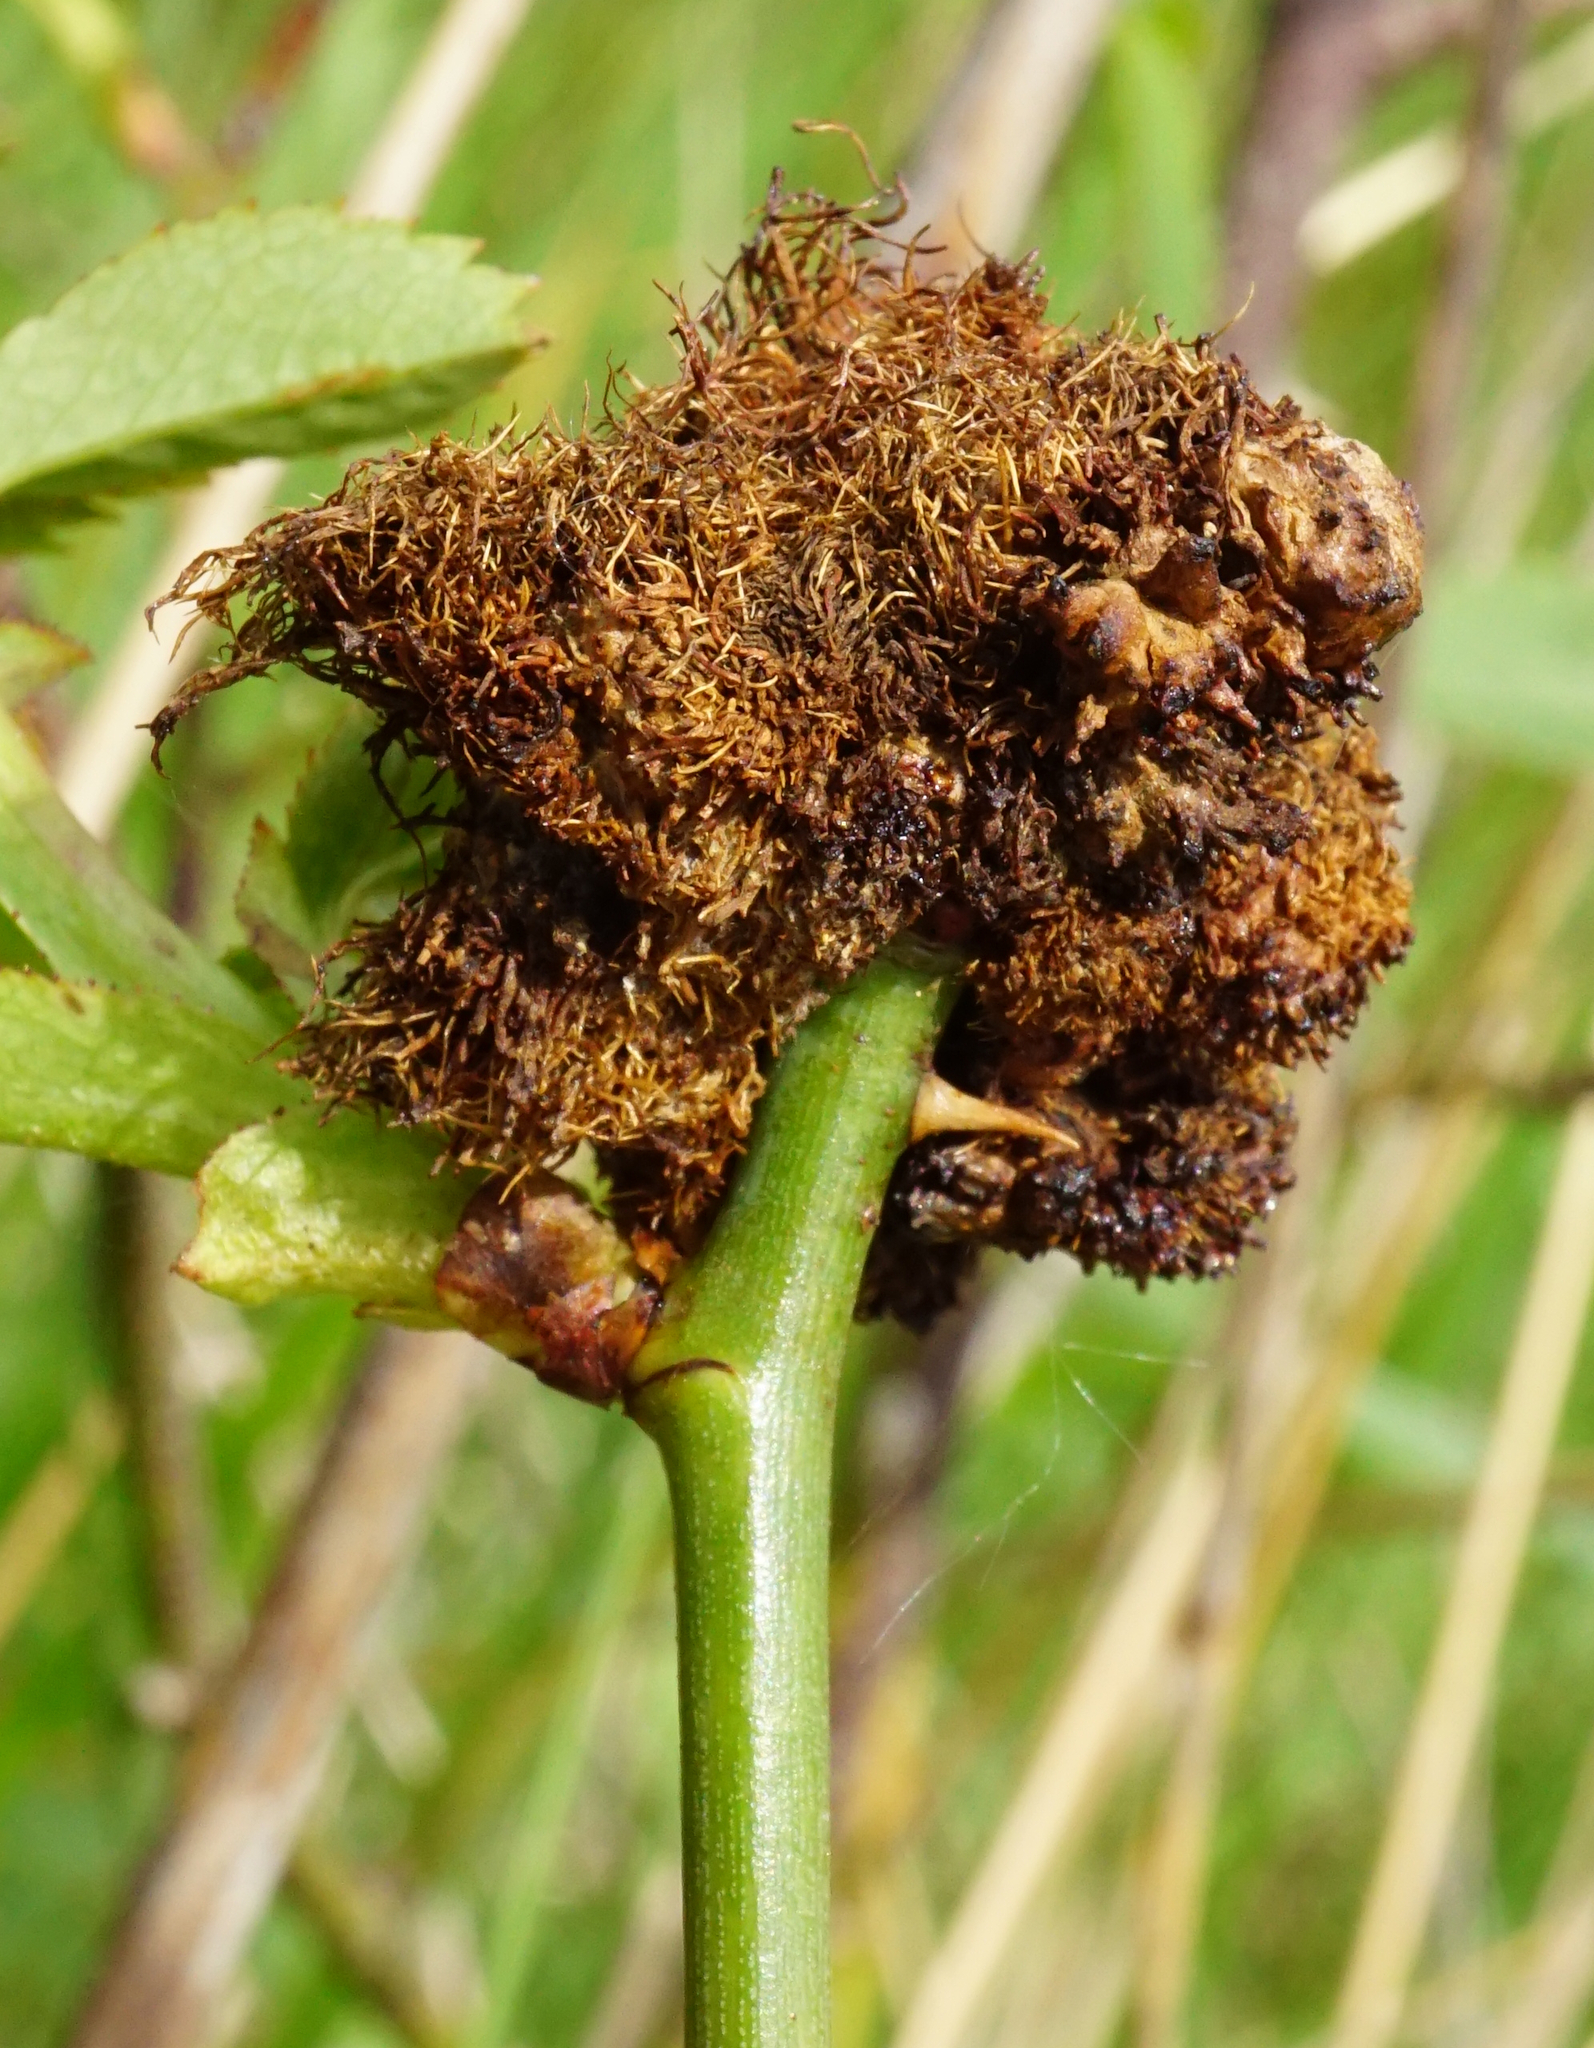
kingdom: Animalia
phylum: Arthropoda
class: Insecta
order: Hymenoptera
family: Cynipidae
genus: Diplolepis
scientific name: Diplolepis rosae
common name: Bedeguar gall
